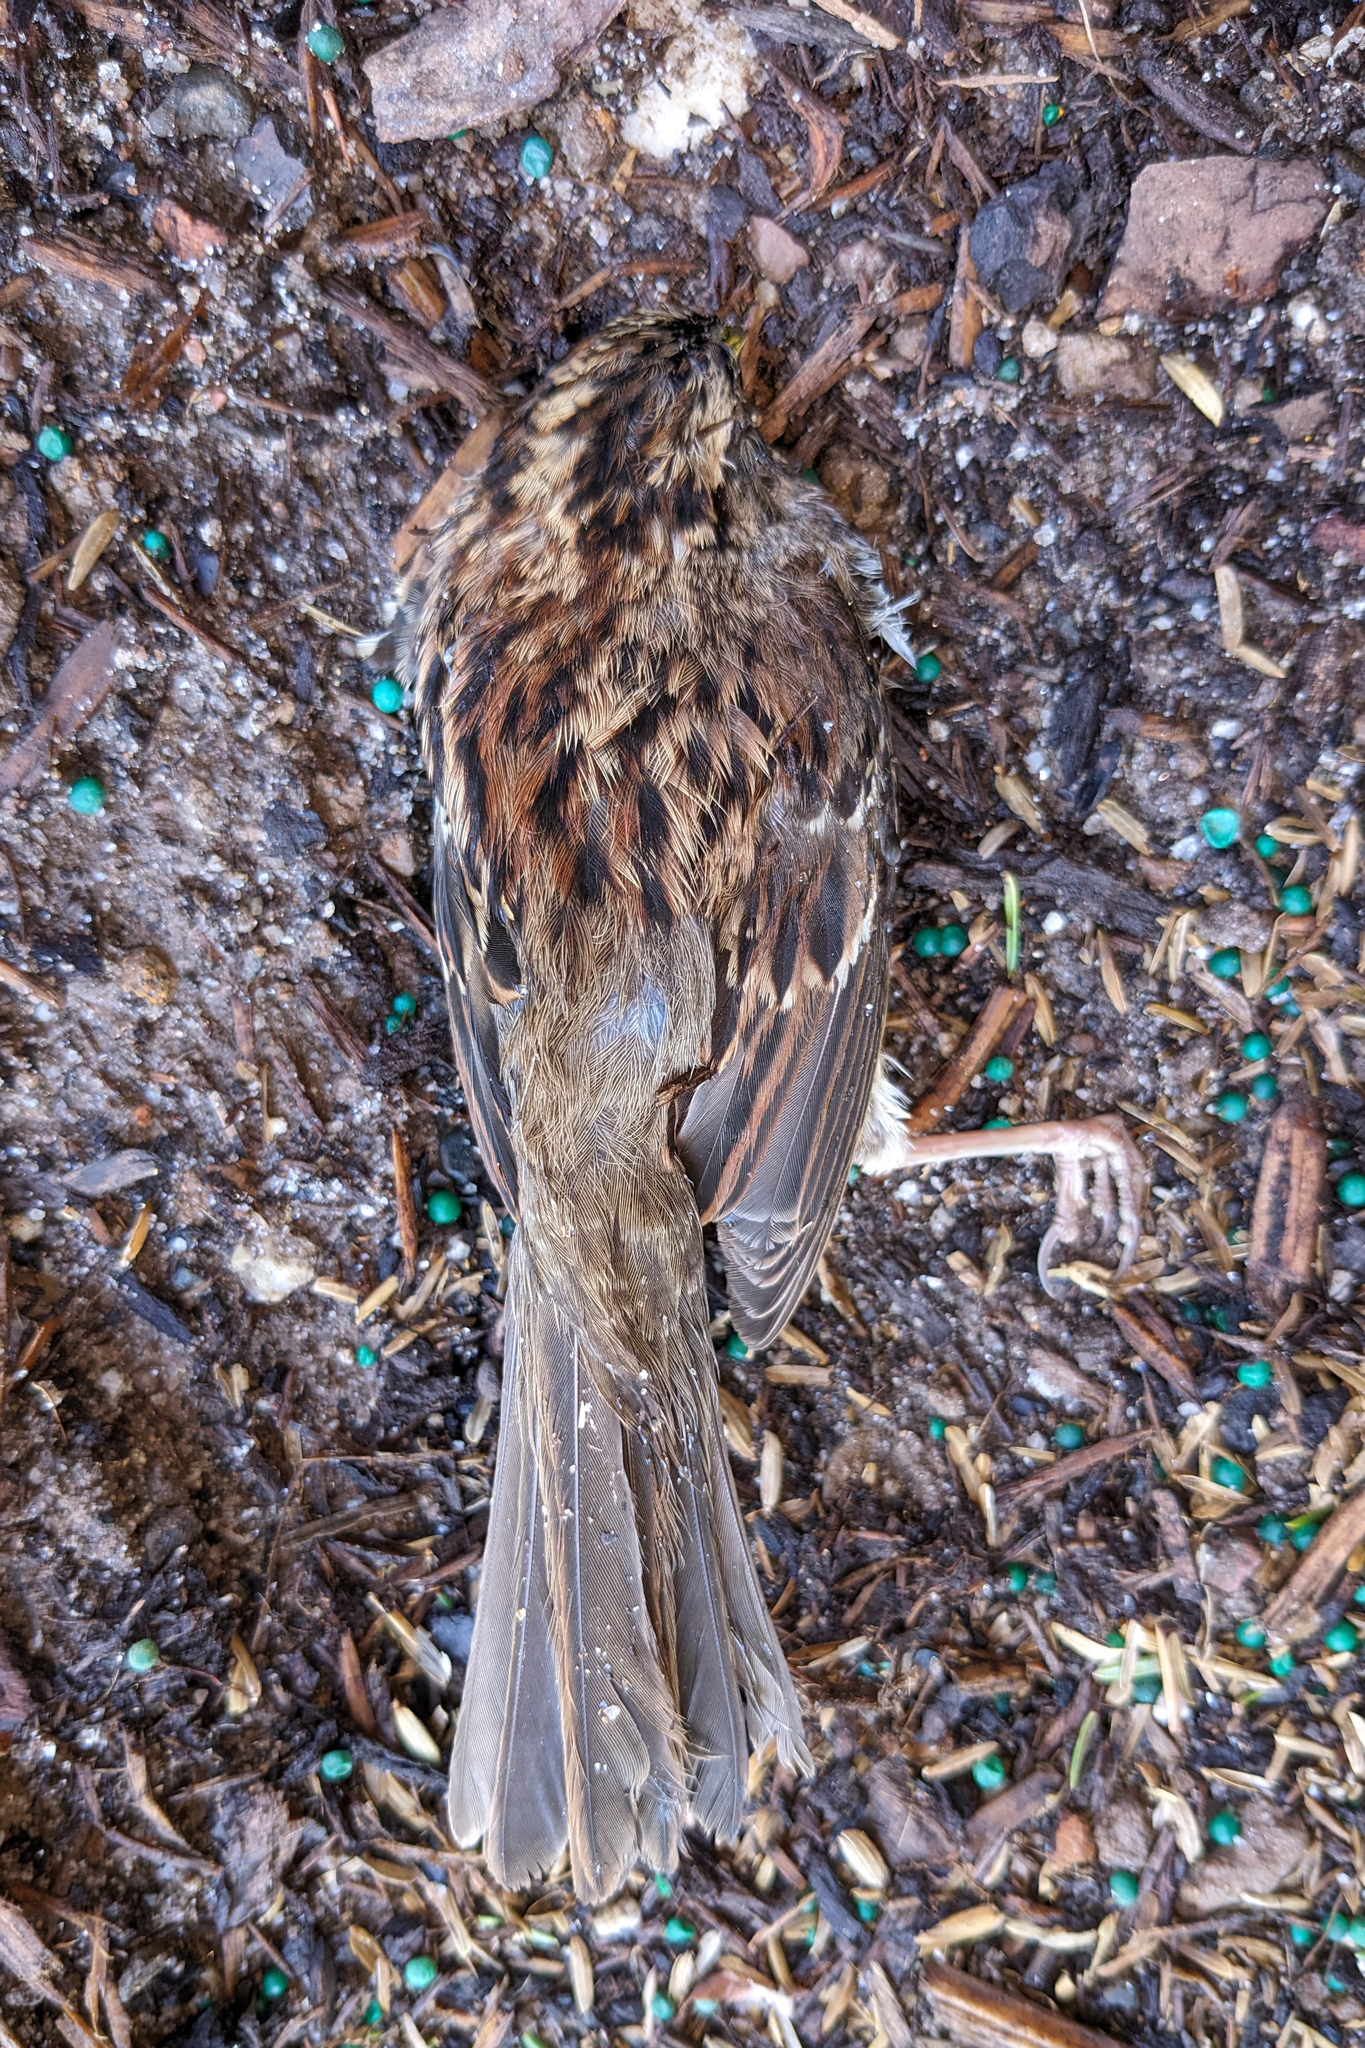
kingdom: Animalia
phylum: Chordata
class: Aves
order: Passeriformes
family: Passerellidae
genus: Zonotrichia
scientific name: Zonotrichia albicollis
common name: White-throated sparrow
